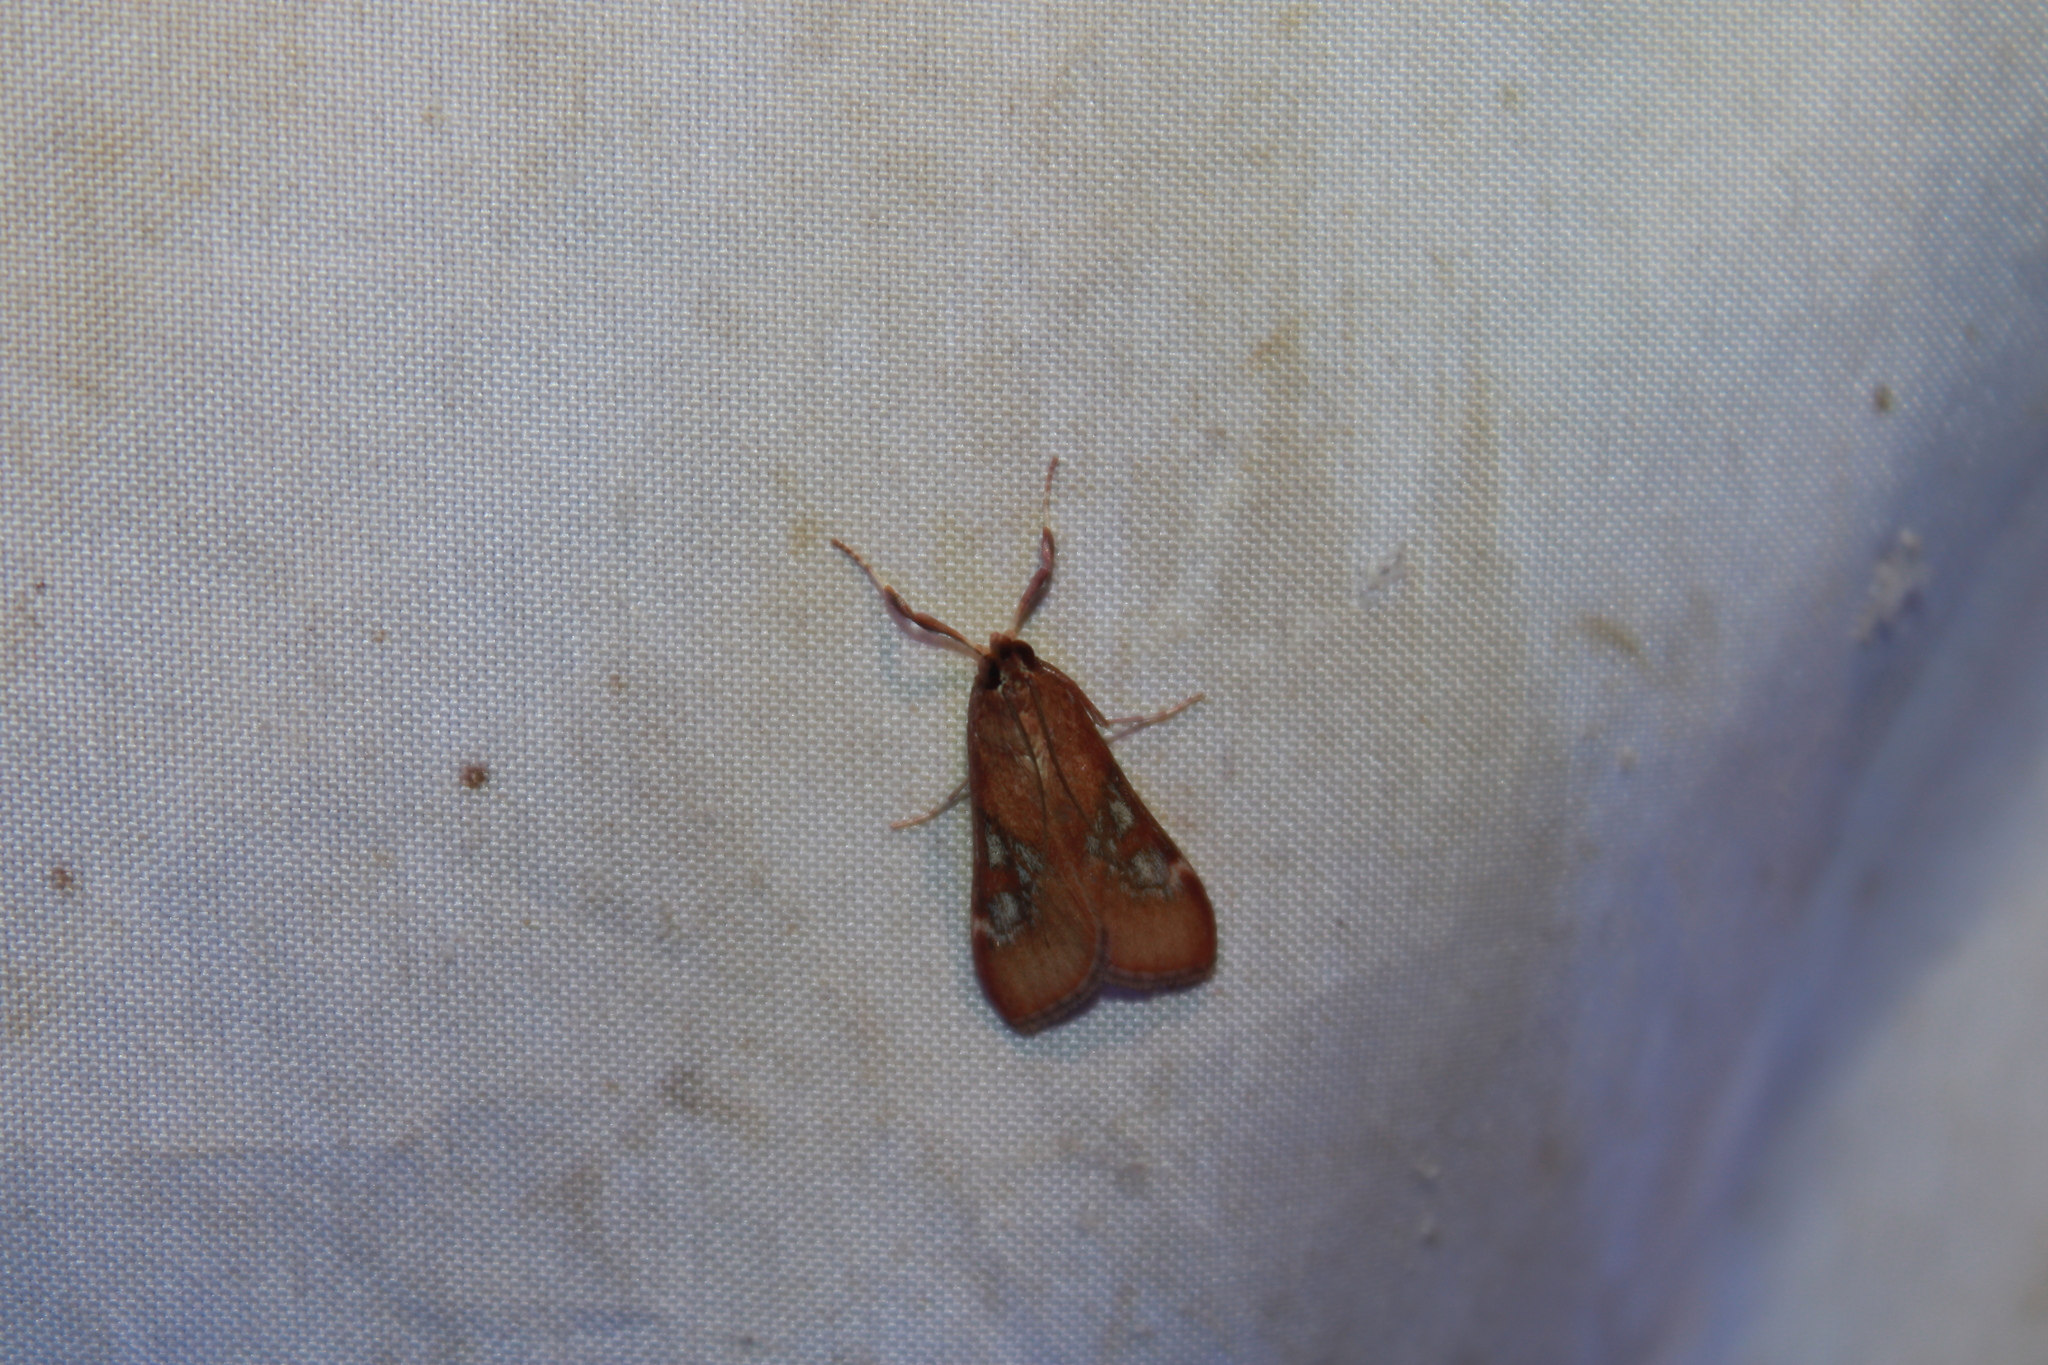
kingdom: Animalia
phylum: Arthropoda
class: Insecta
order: Lepidoptera
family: Crambidae
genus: Omiodes
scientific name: Omiodes stigmosalis
